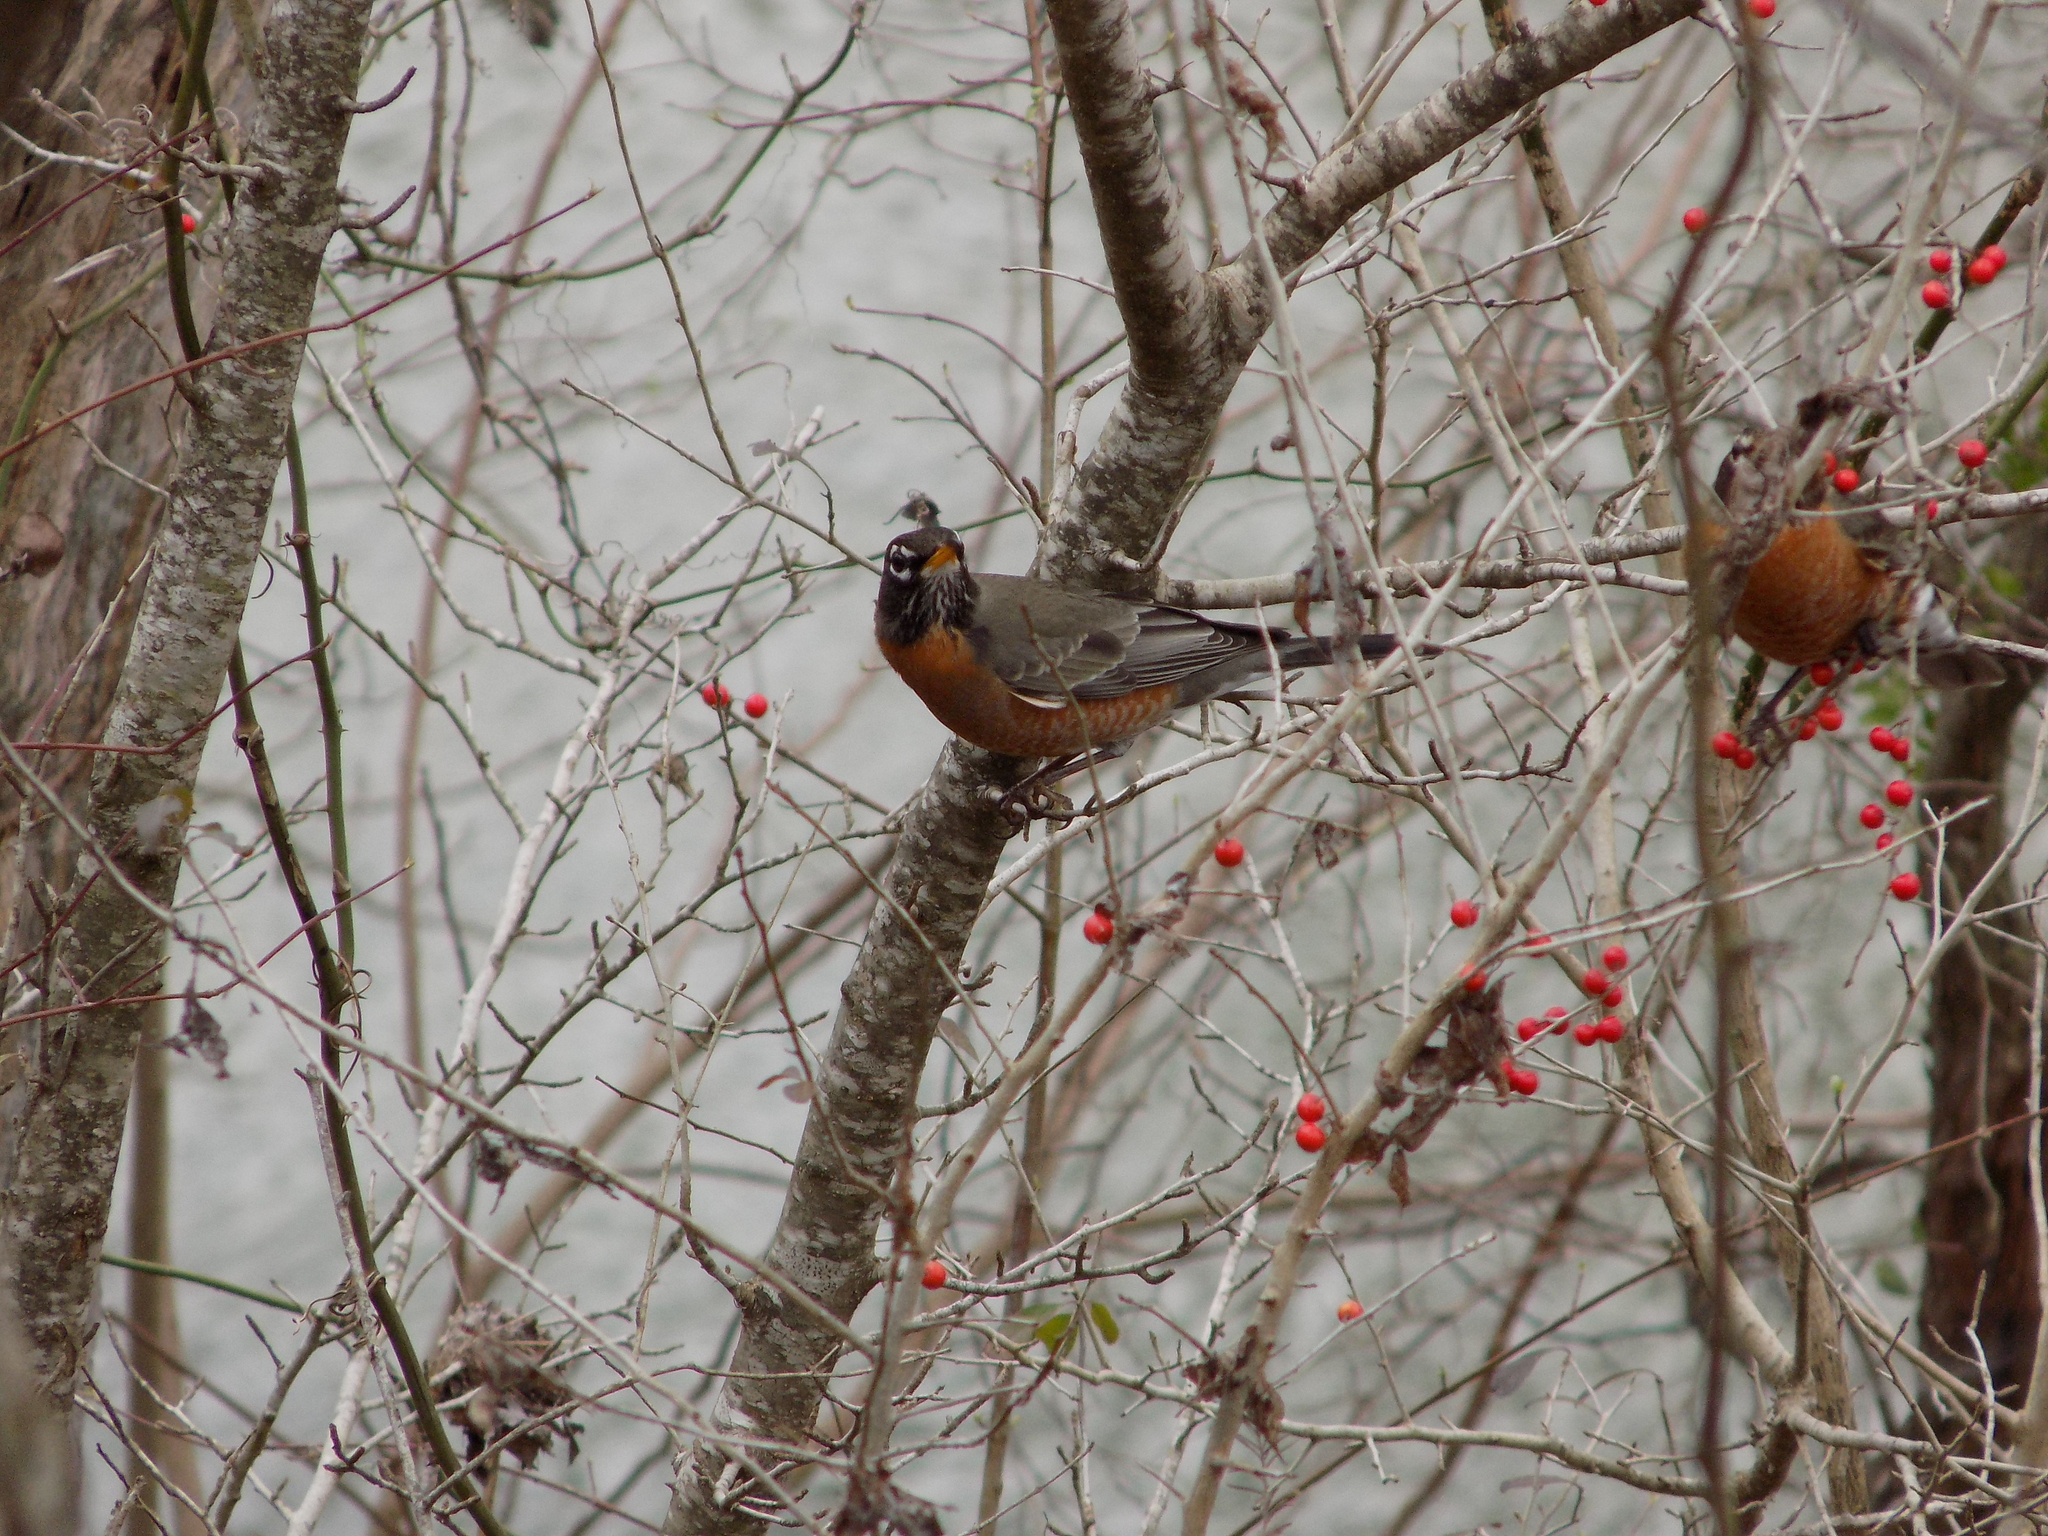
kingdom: Animalia
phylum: Chordata
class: Aves
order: Passeriformes
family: Turdidae
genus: Turdus
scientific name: Turdus migratorius
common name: American robin
